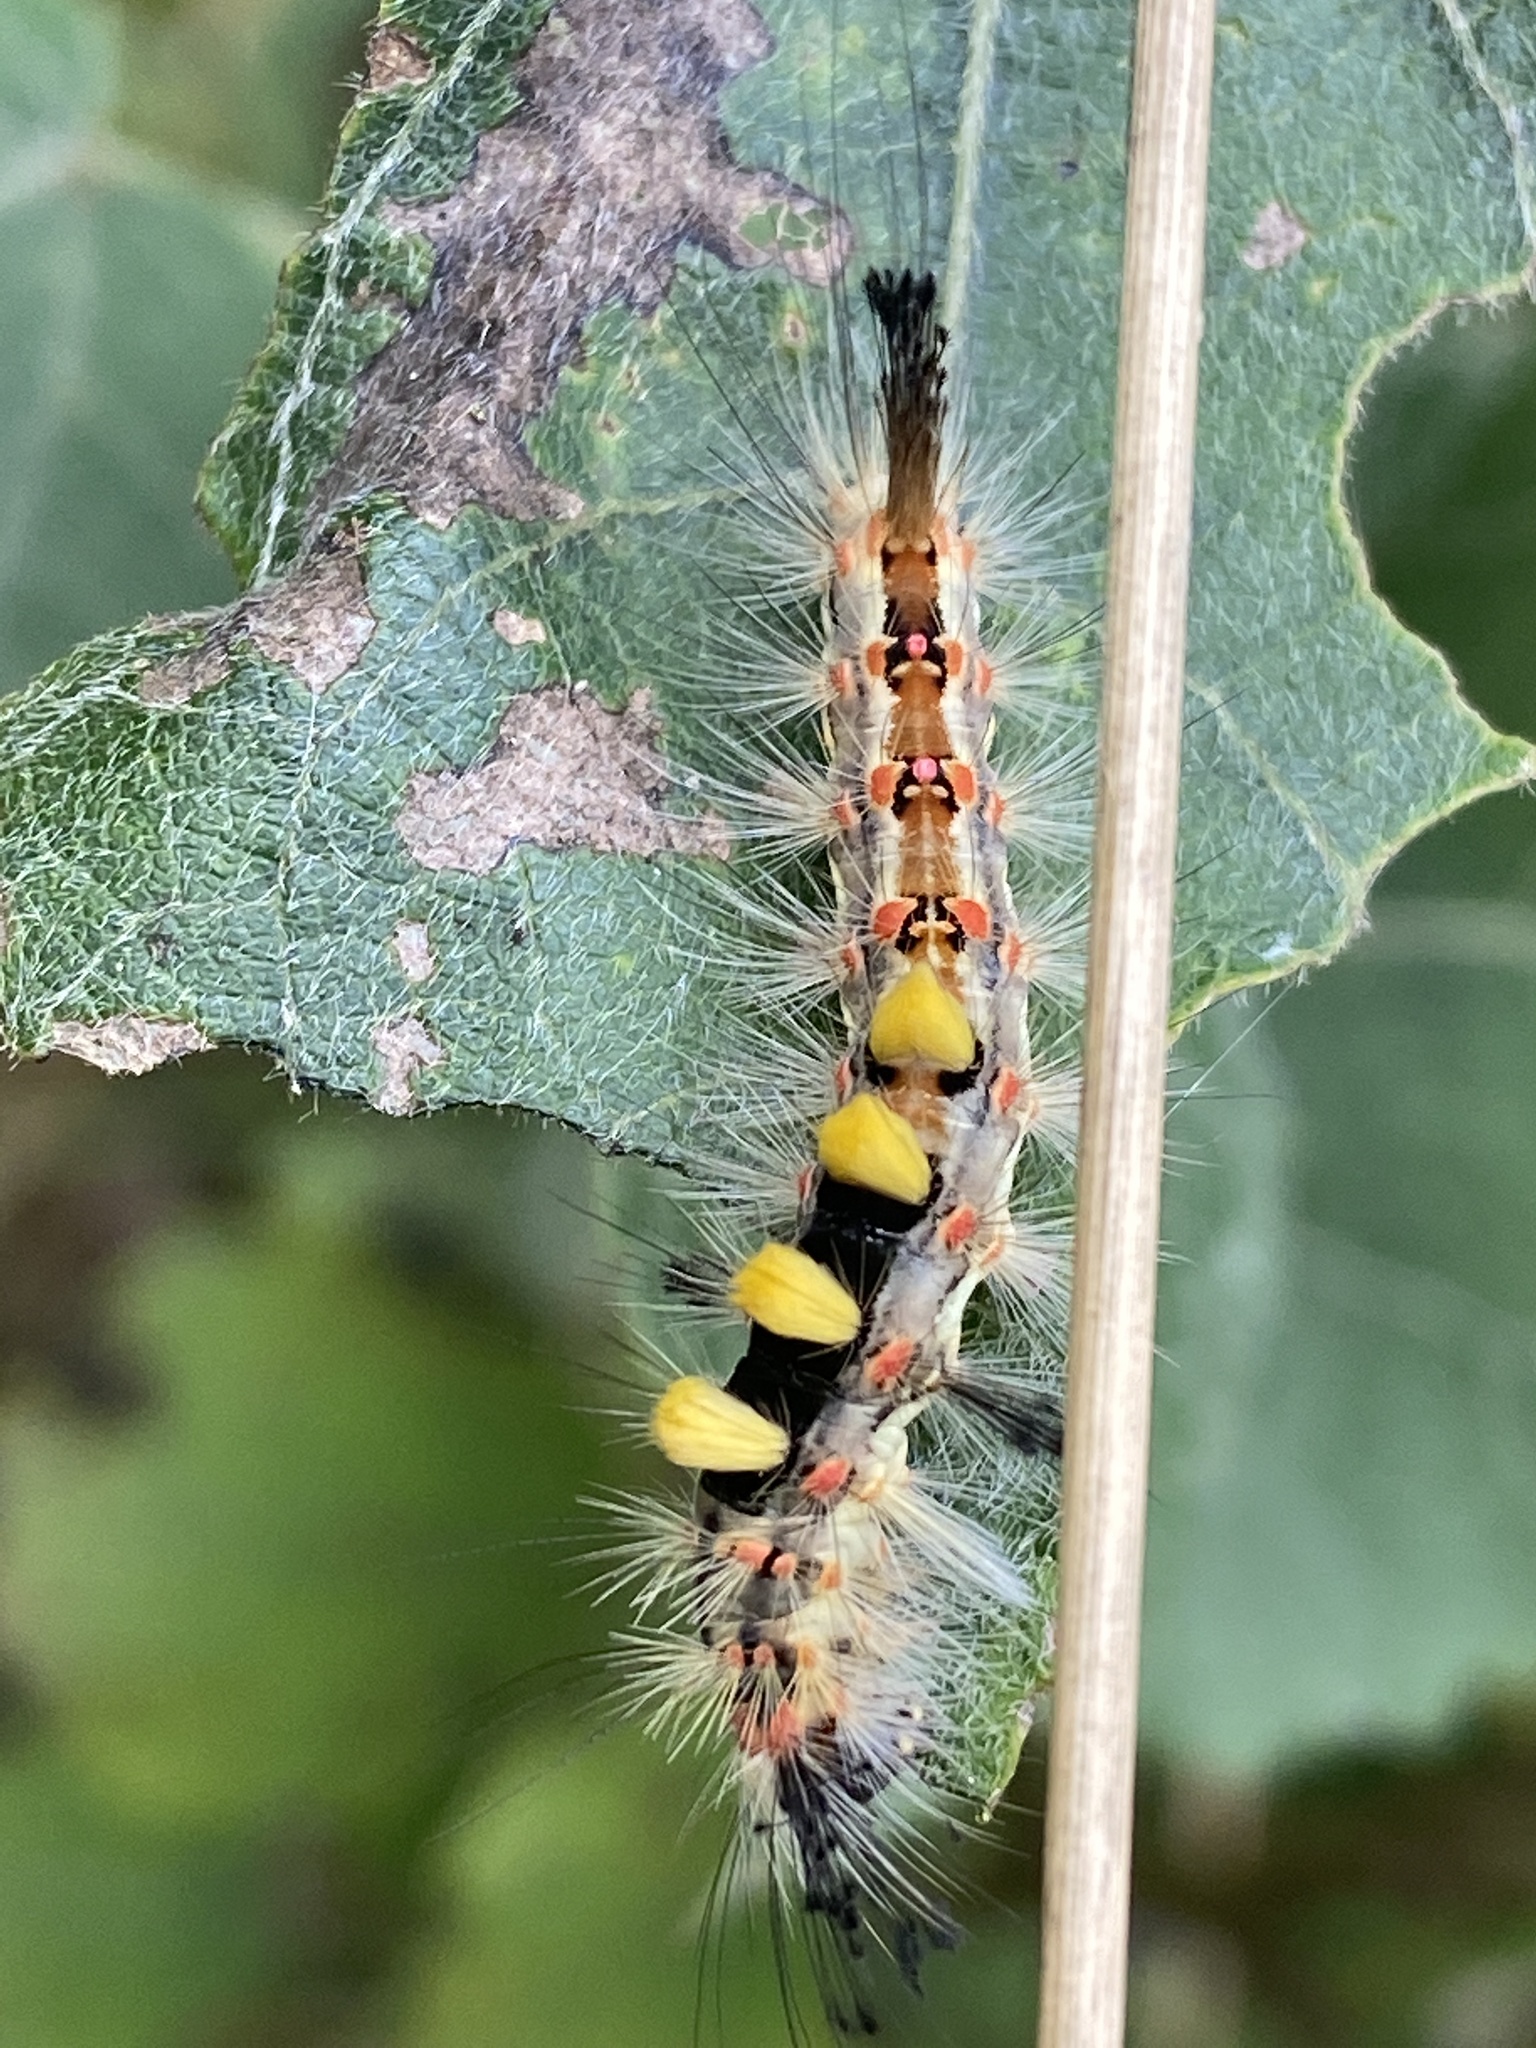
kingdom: Animalia
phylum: Arthropoda
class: Insecta
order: Lepidoptera
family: Erebidae
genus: Orgyia
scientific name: Orgyia antiqua
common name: Vapourer
